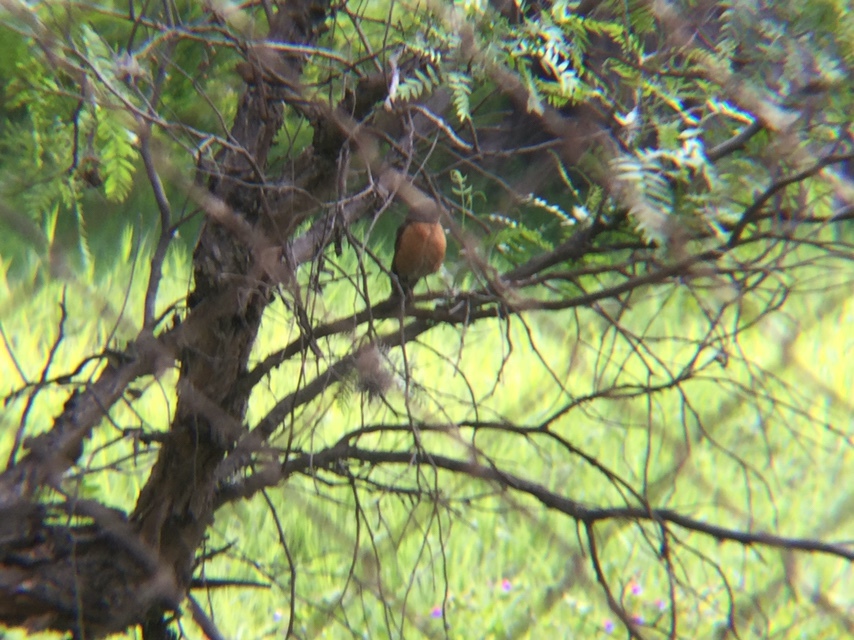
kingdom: Animalia
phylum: Chordata
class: Aves
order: Passeriformes
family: Turdidae
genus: Turdus
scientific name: Turdus migratorius
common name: American robin
